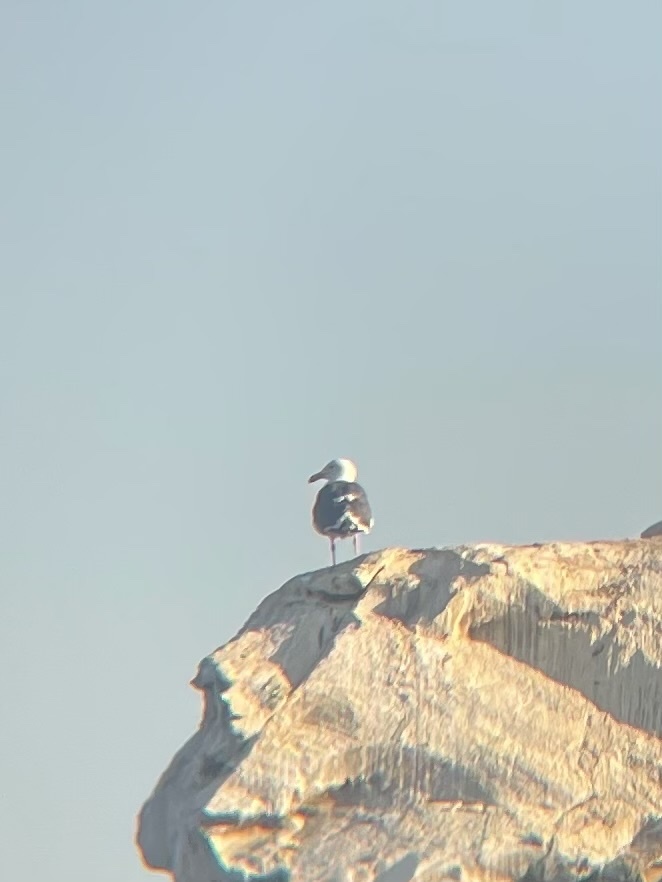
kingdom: Animalia
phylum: Chordata
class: Aves
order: Charadriiformes
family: Laridae
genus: Larus
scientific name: Larus occidentalis
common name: Western gull
